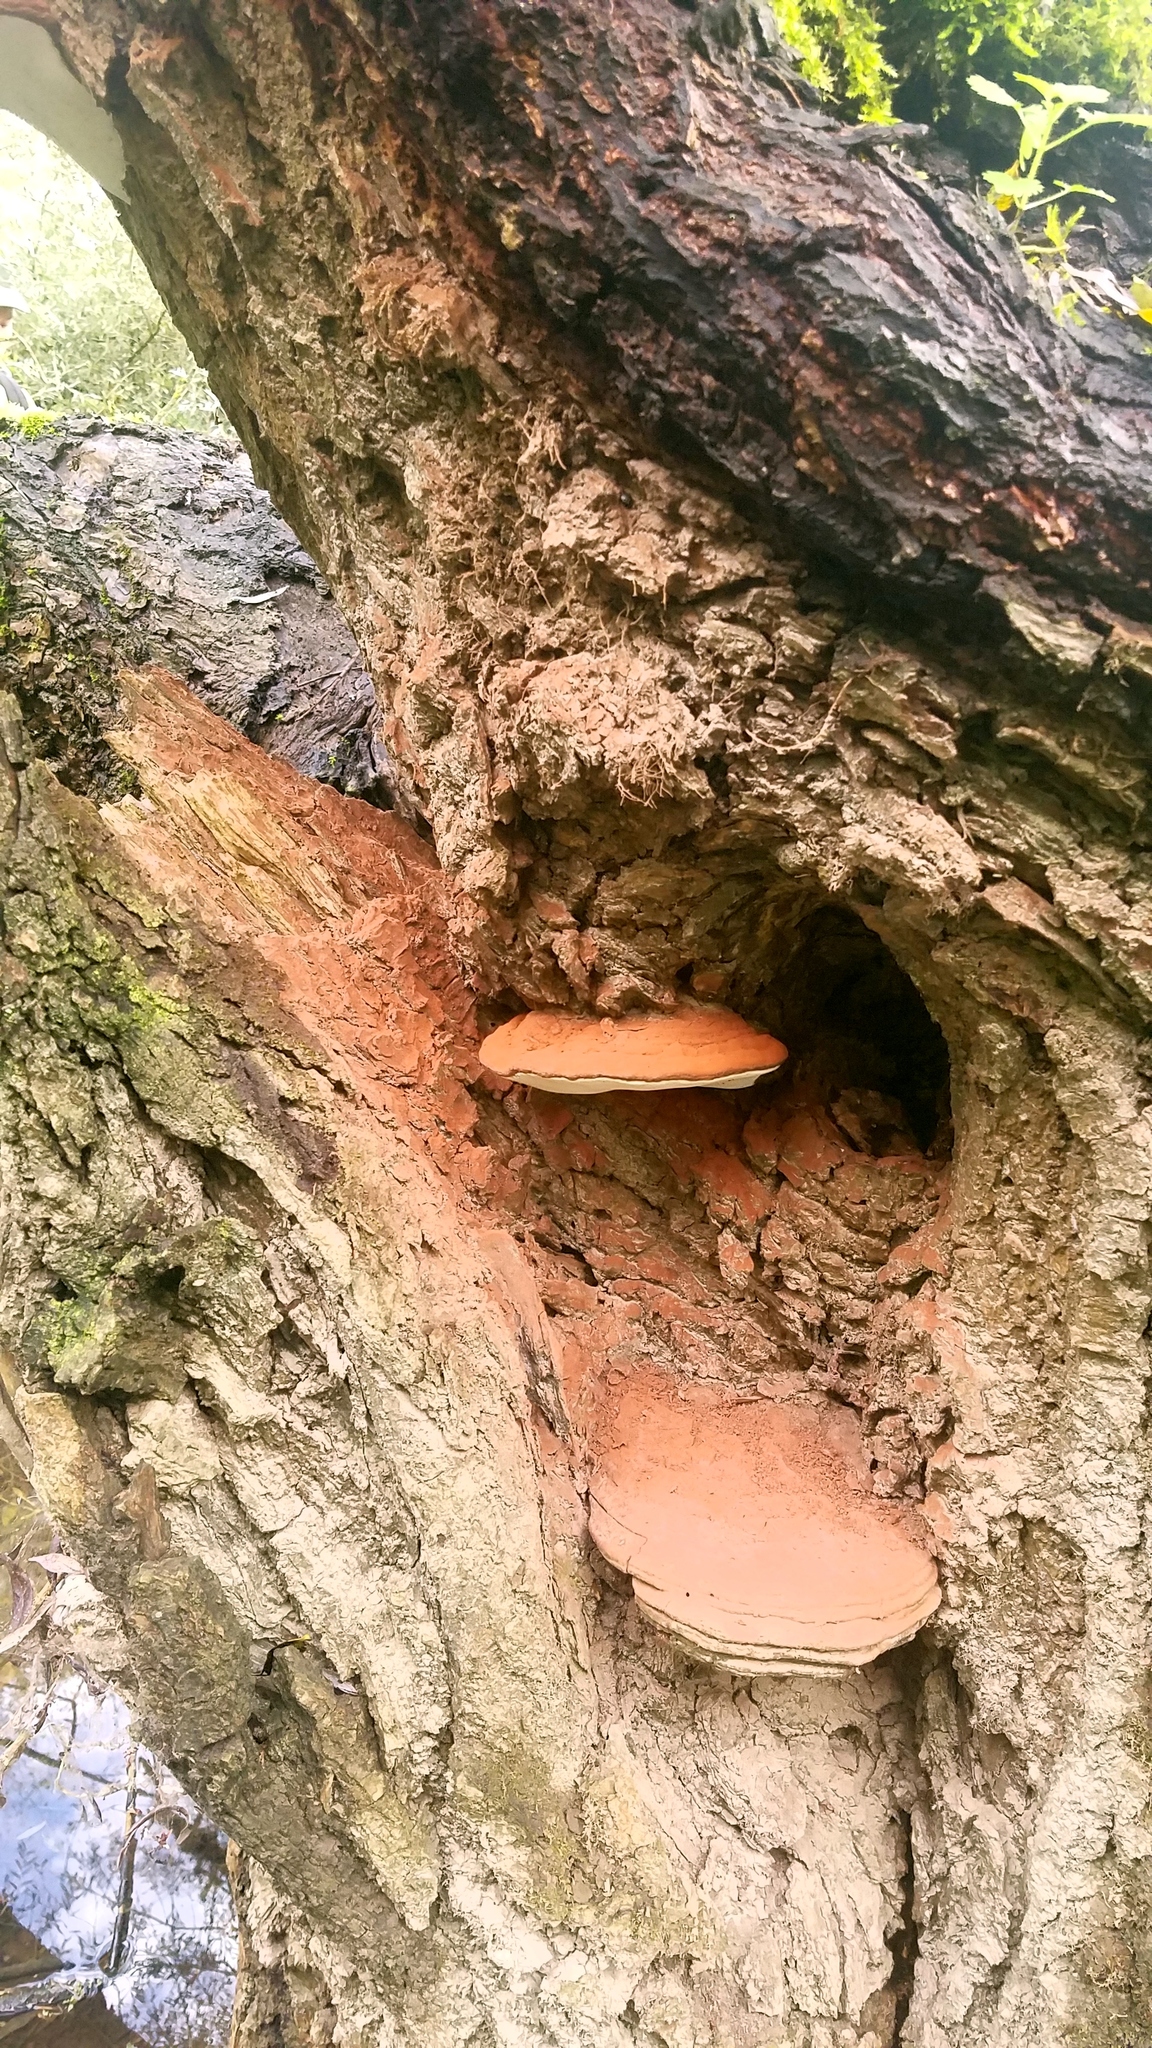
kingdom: Fungi
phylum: Basidiomycota
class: Agaricomycetes
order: Polyporales
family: Polyporaceae
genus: Ganoderma
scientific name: Ganoderma applanatum
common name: Artist's bracket
